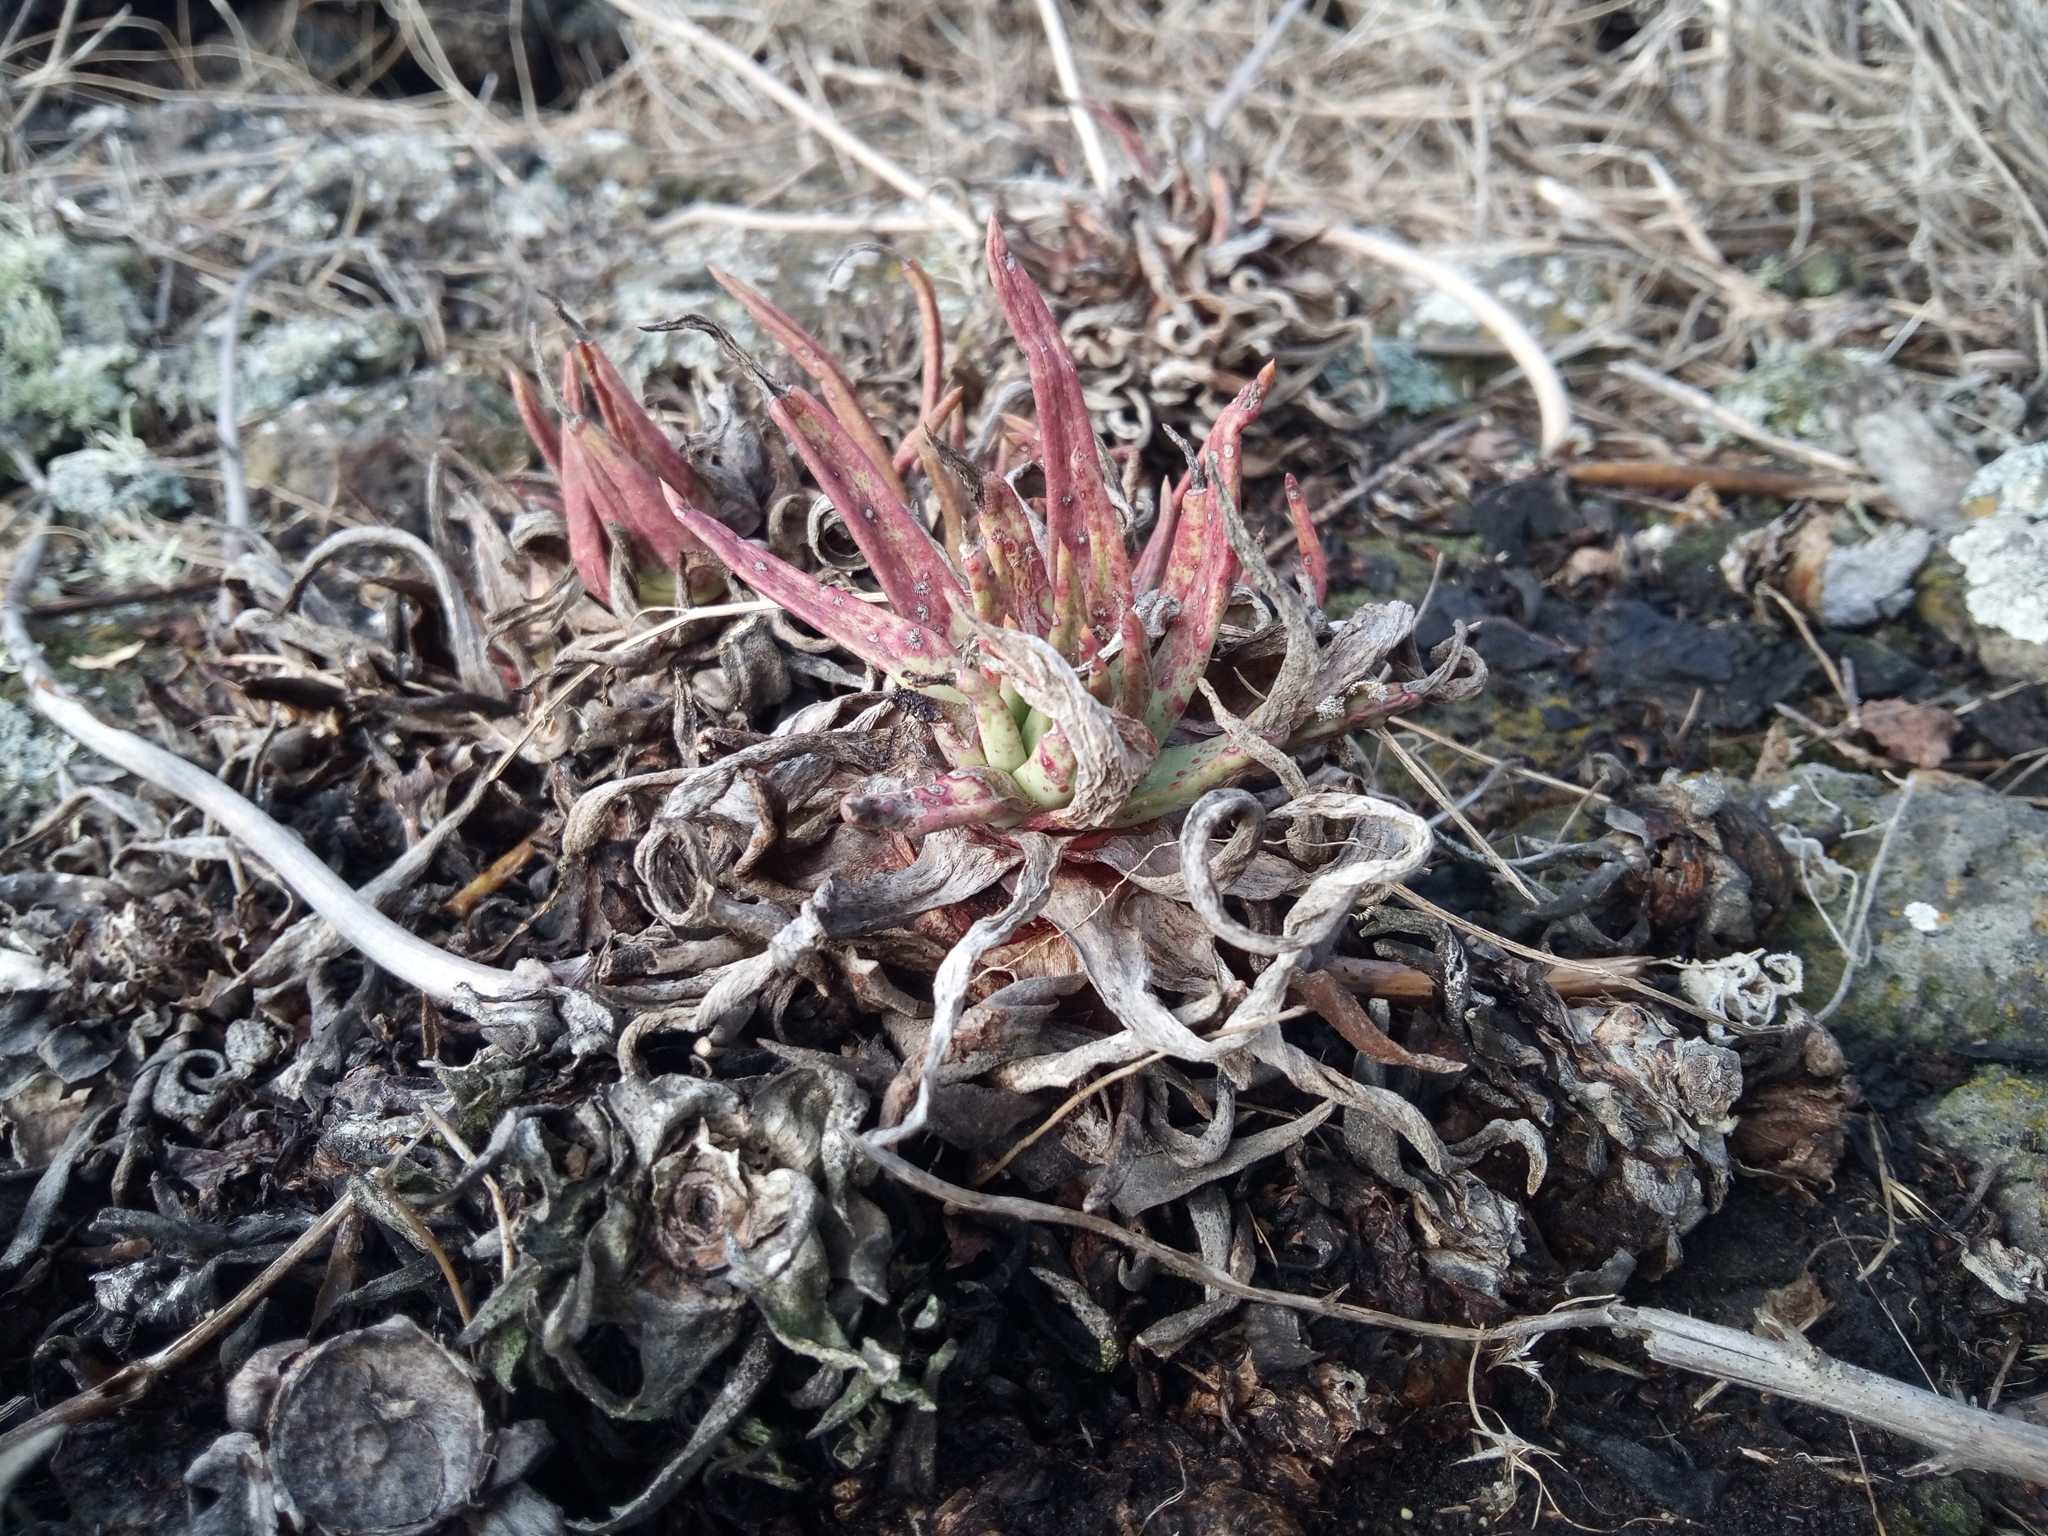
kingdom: Plantae
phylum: Tracheophyta
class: Magnoliopsida
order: Saxifragales
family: Crassulaceae
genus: Dudleya
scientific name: Dudleya linearis
